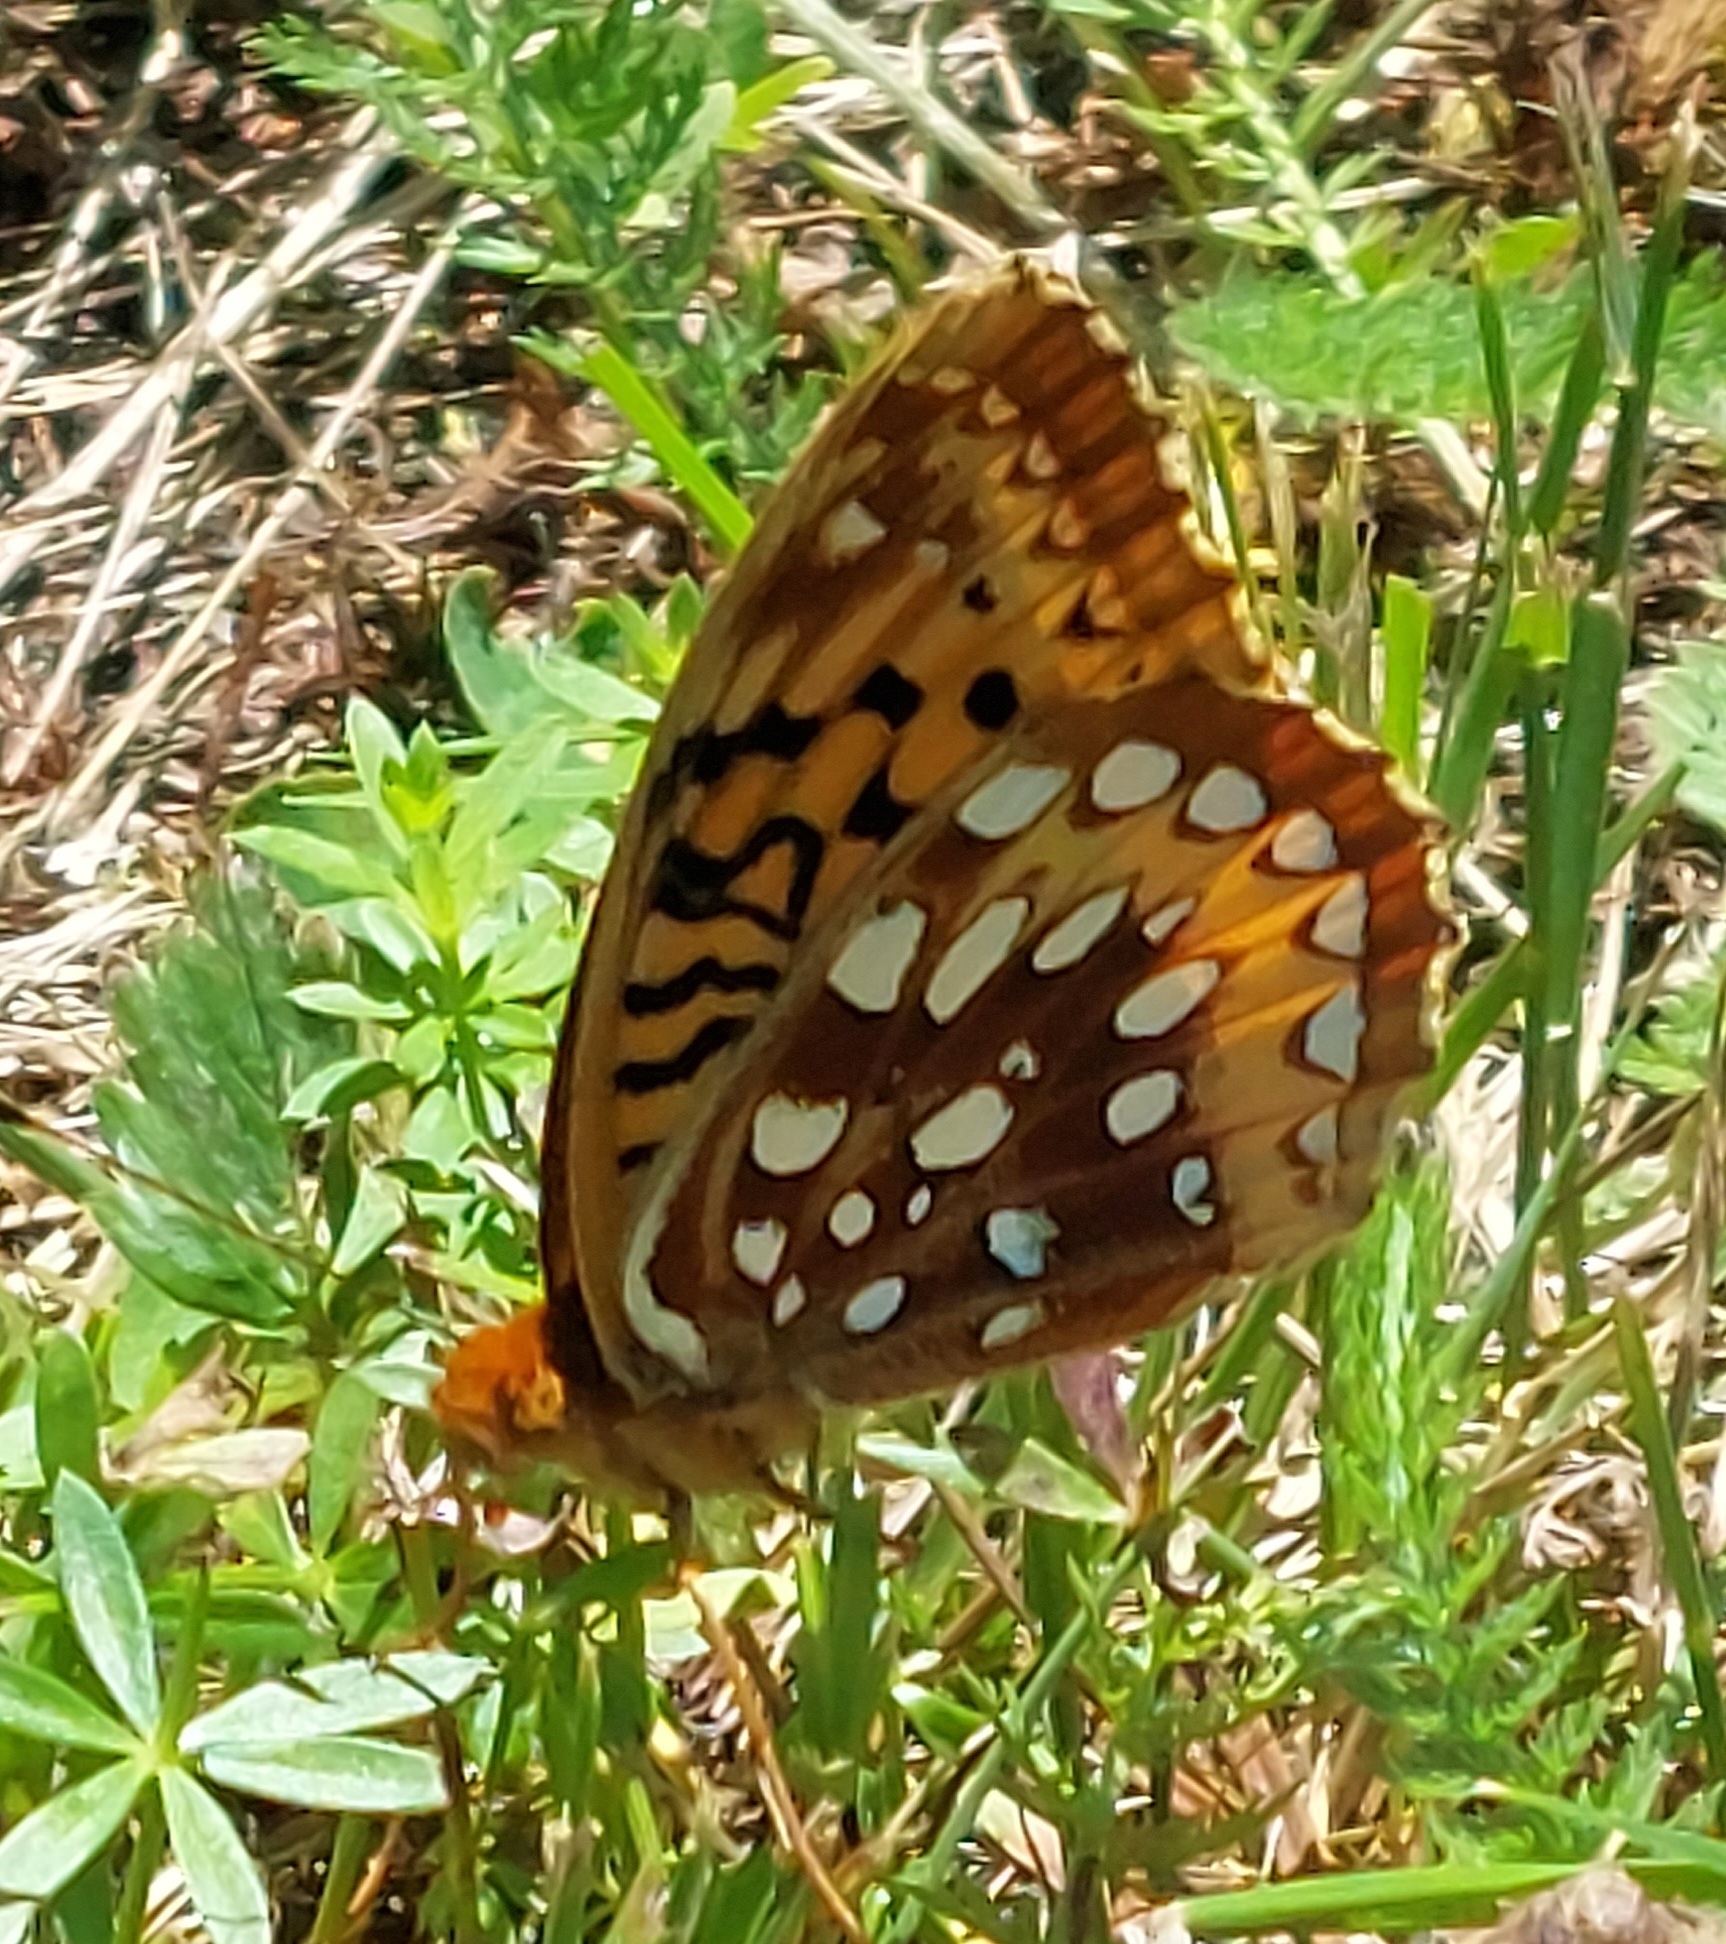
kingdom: Animalia
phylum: Arthropoda
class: Insecta
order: Lepidoptera
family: Nymphalidae
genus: Speyeria
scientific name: Speyeria cybele
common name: Great spangled fritillary
